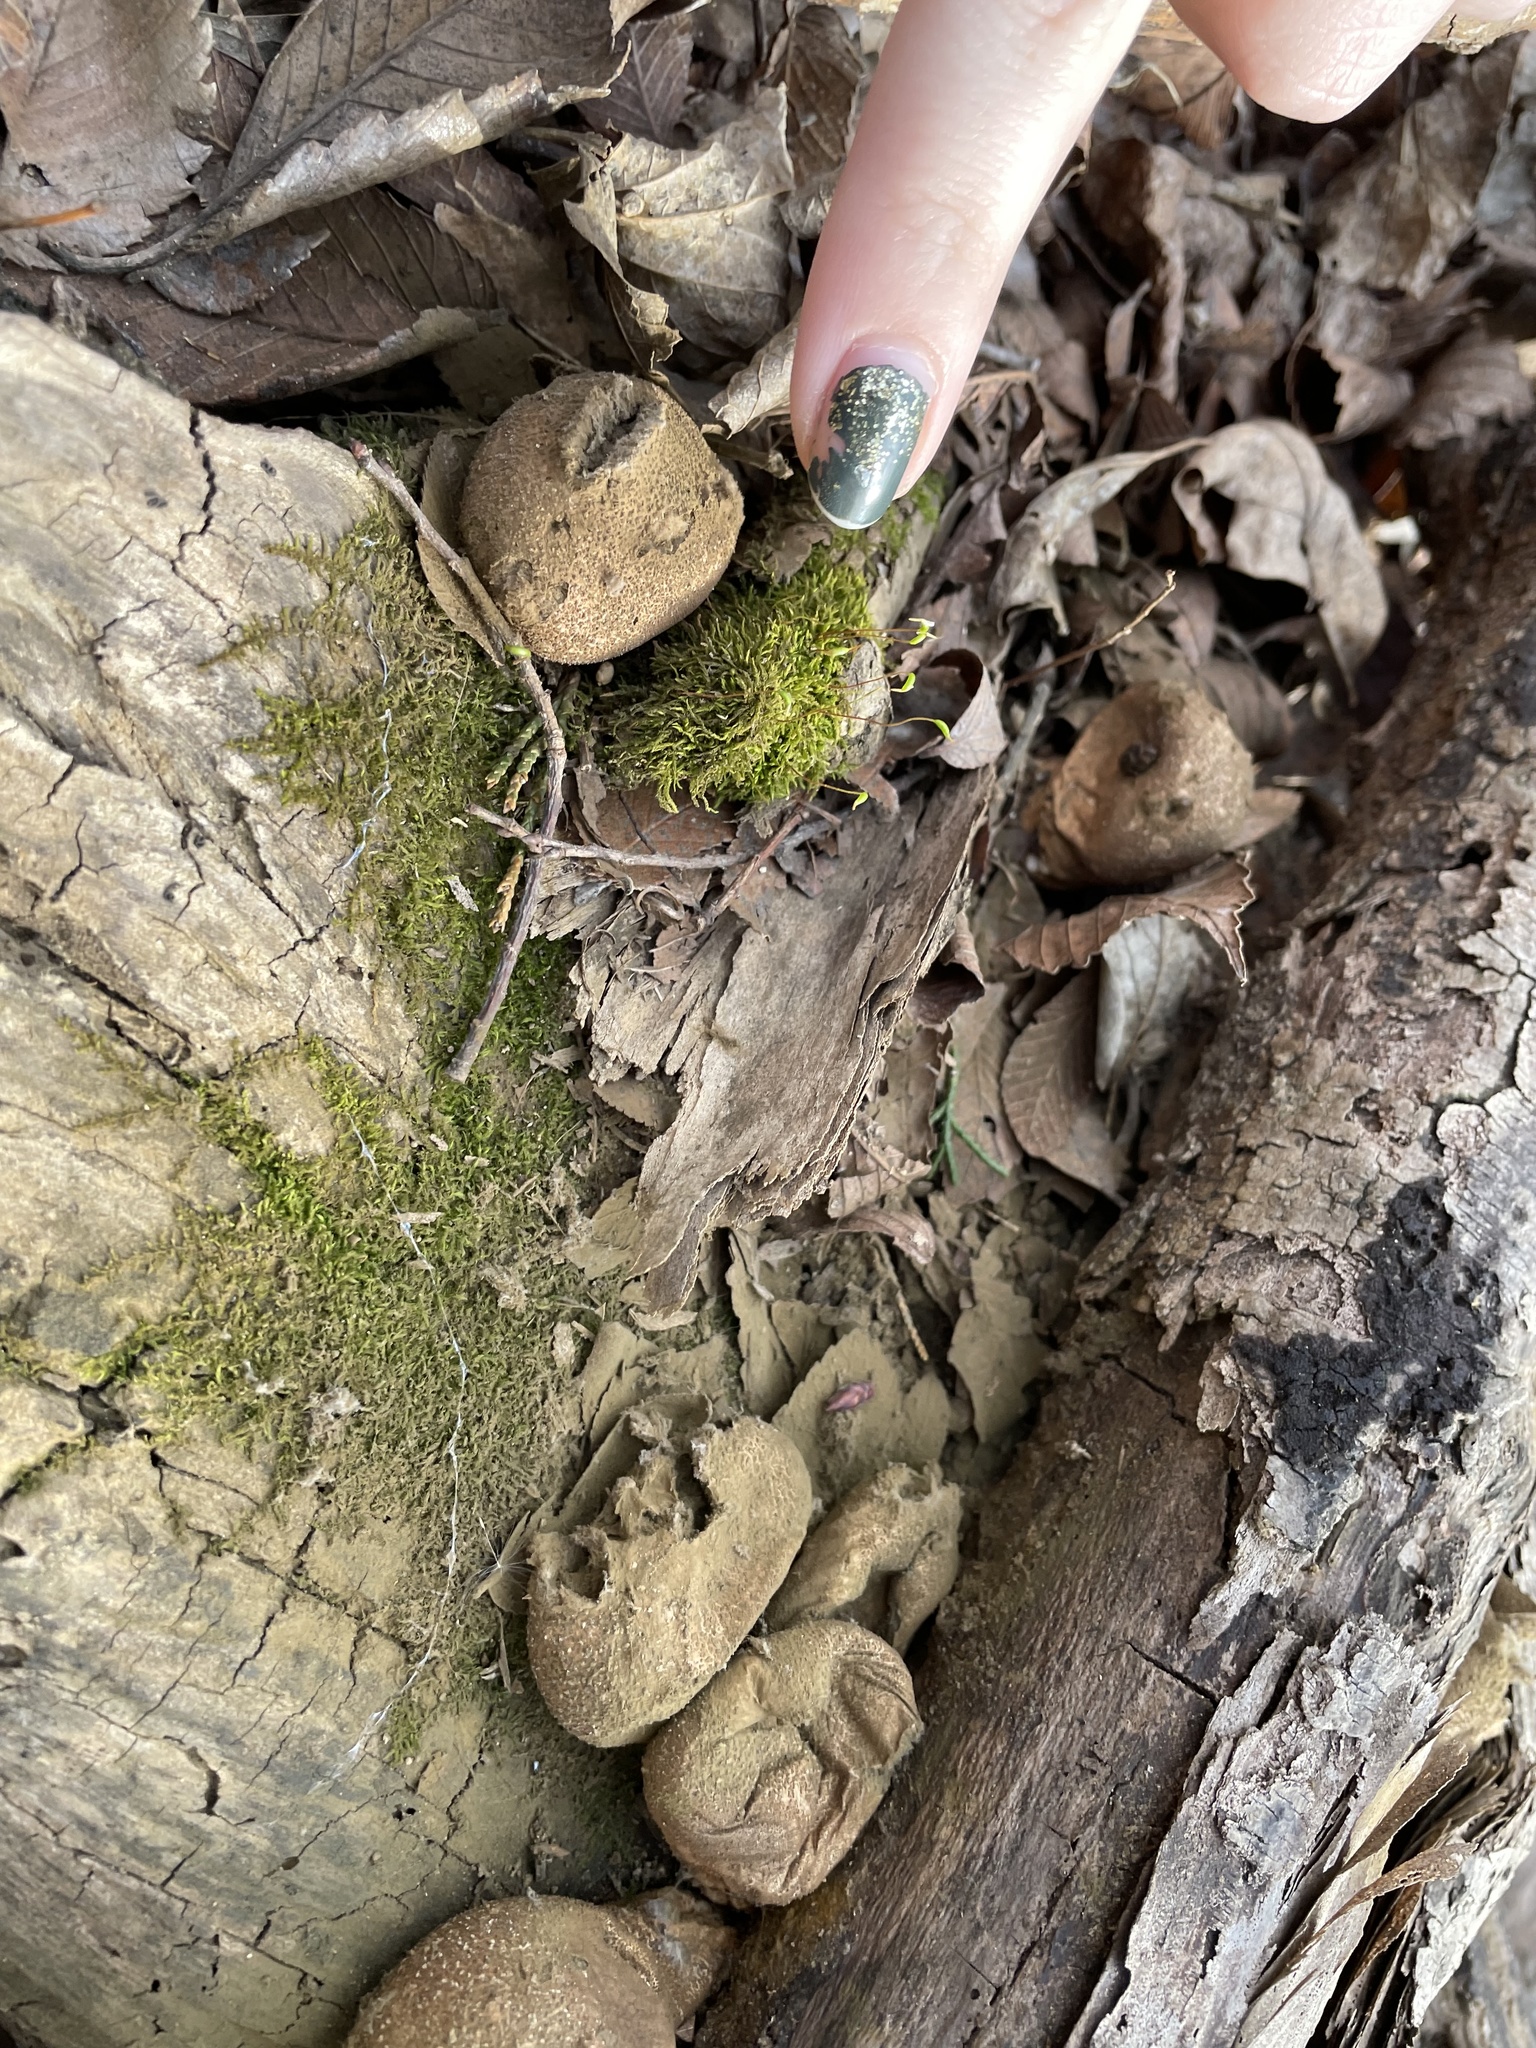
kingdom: Fungi
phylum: Basidiomycota
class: Agaricomycetes
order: Agaricales
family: Lycoperdaceae
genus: Apioperdon
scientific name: Apioperdon pyriforme
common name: Pear-shaped puffball
